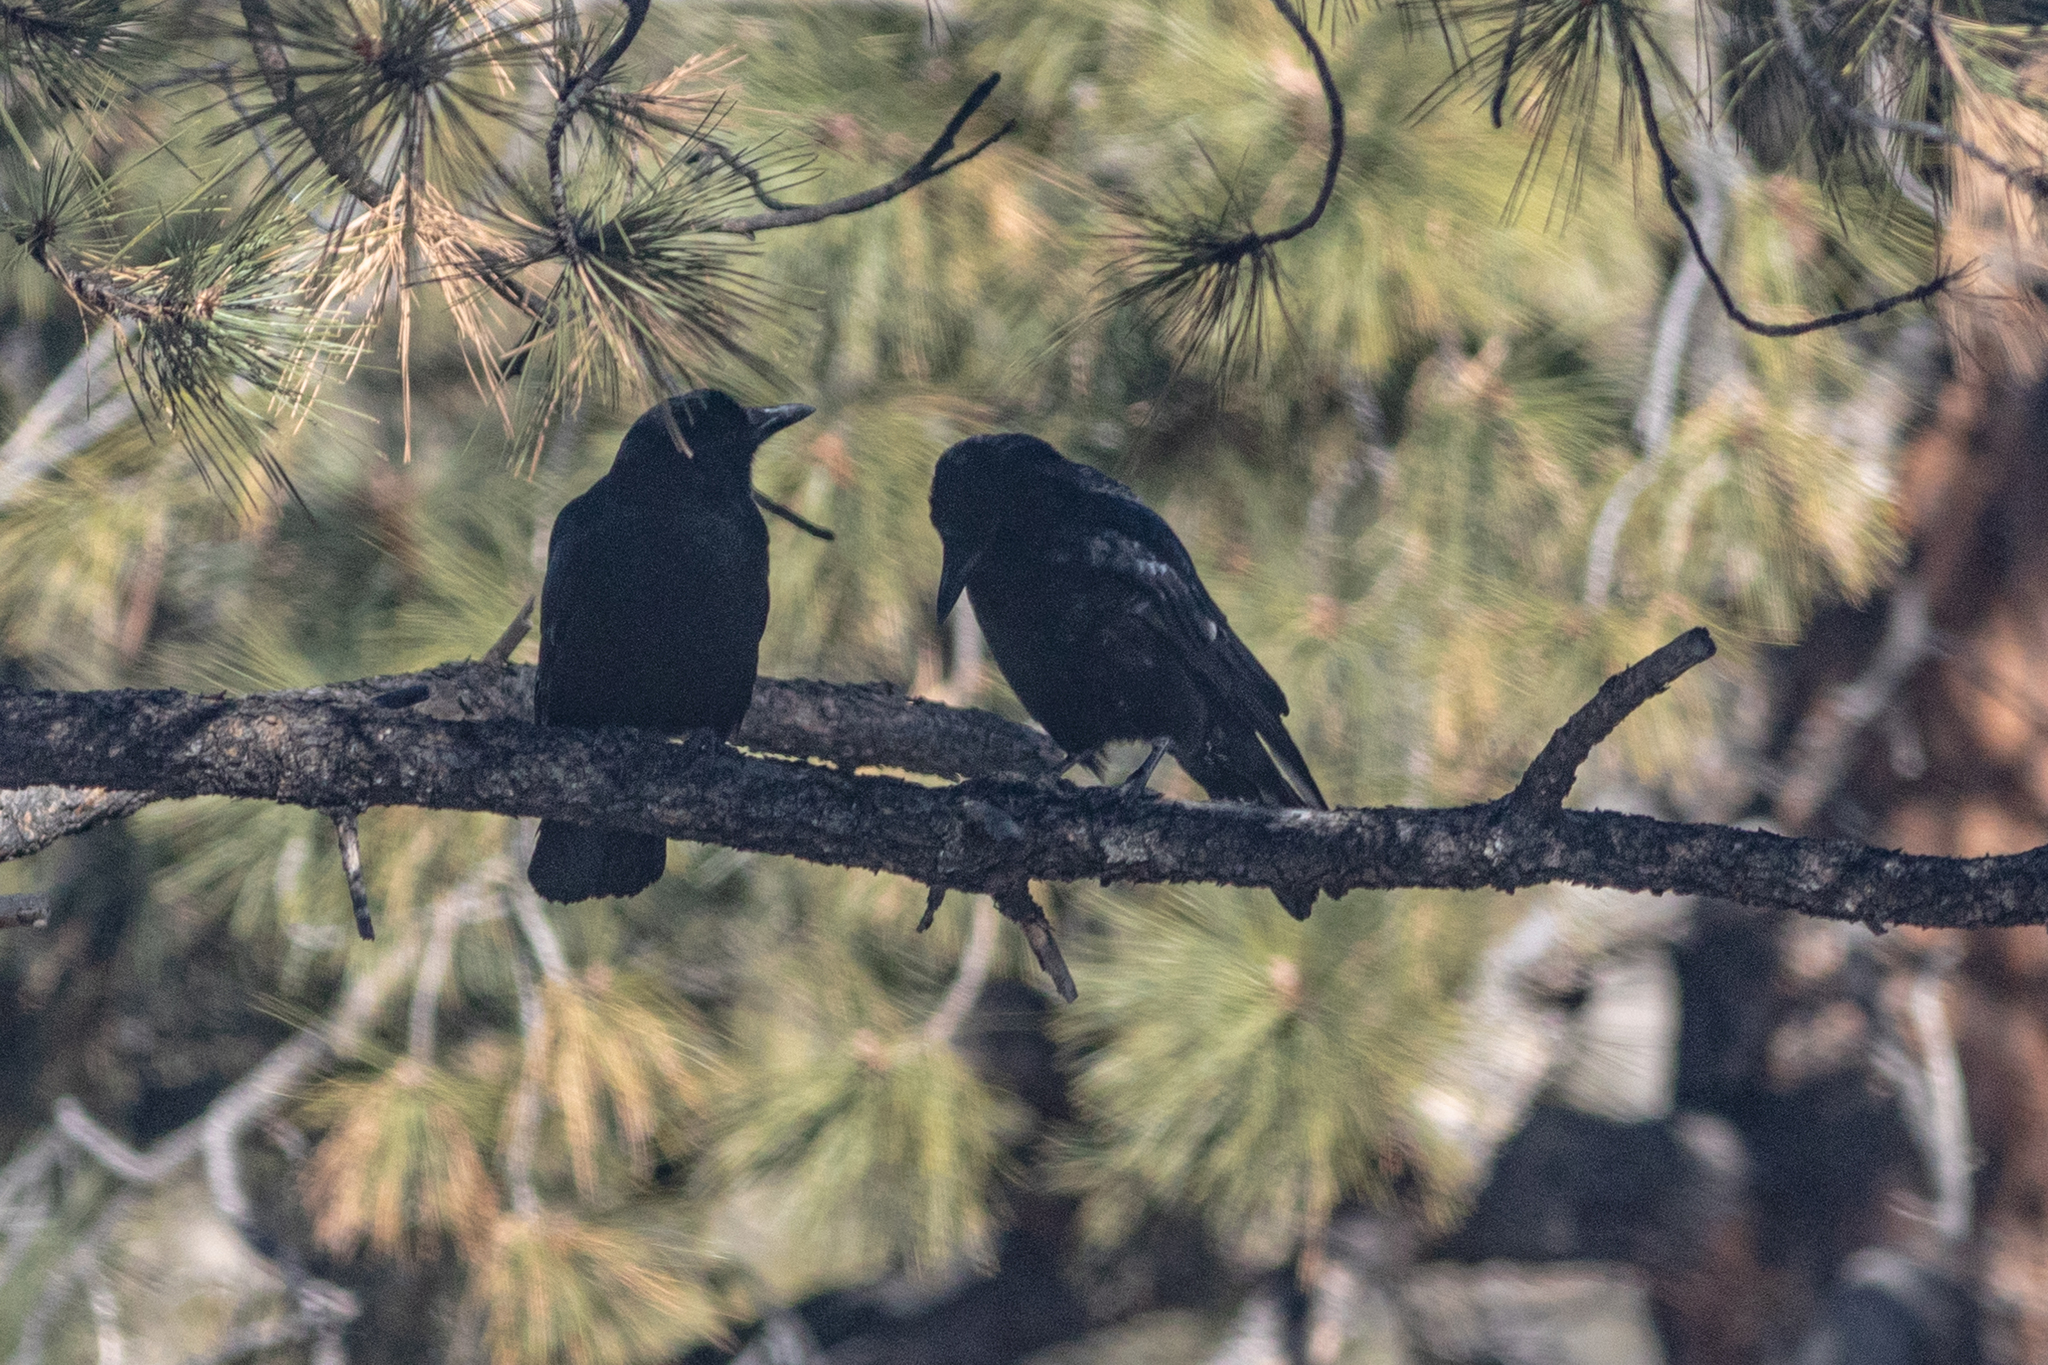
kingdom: Animalia
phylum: Chordata
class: Aves
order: Passeriformes
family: Corvidae
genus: Corvus
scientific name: Corvus brachyrhynchos
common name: American crow
